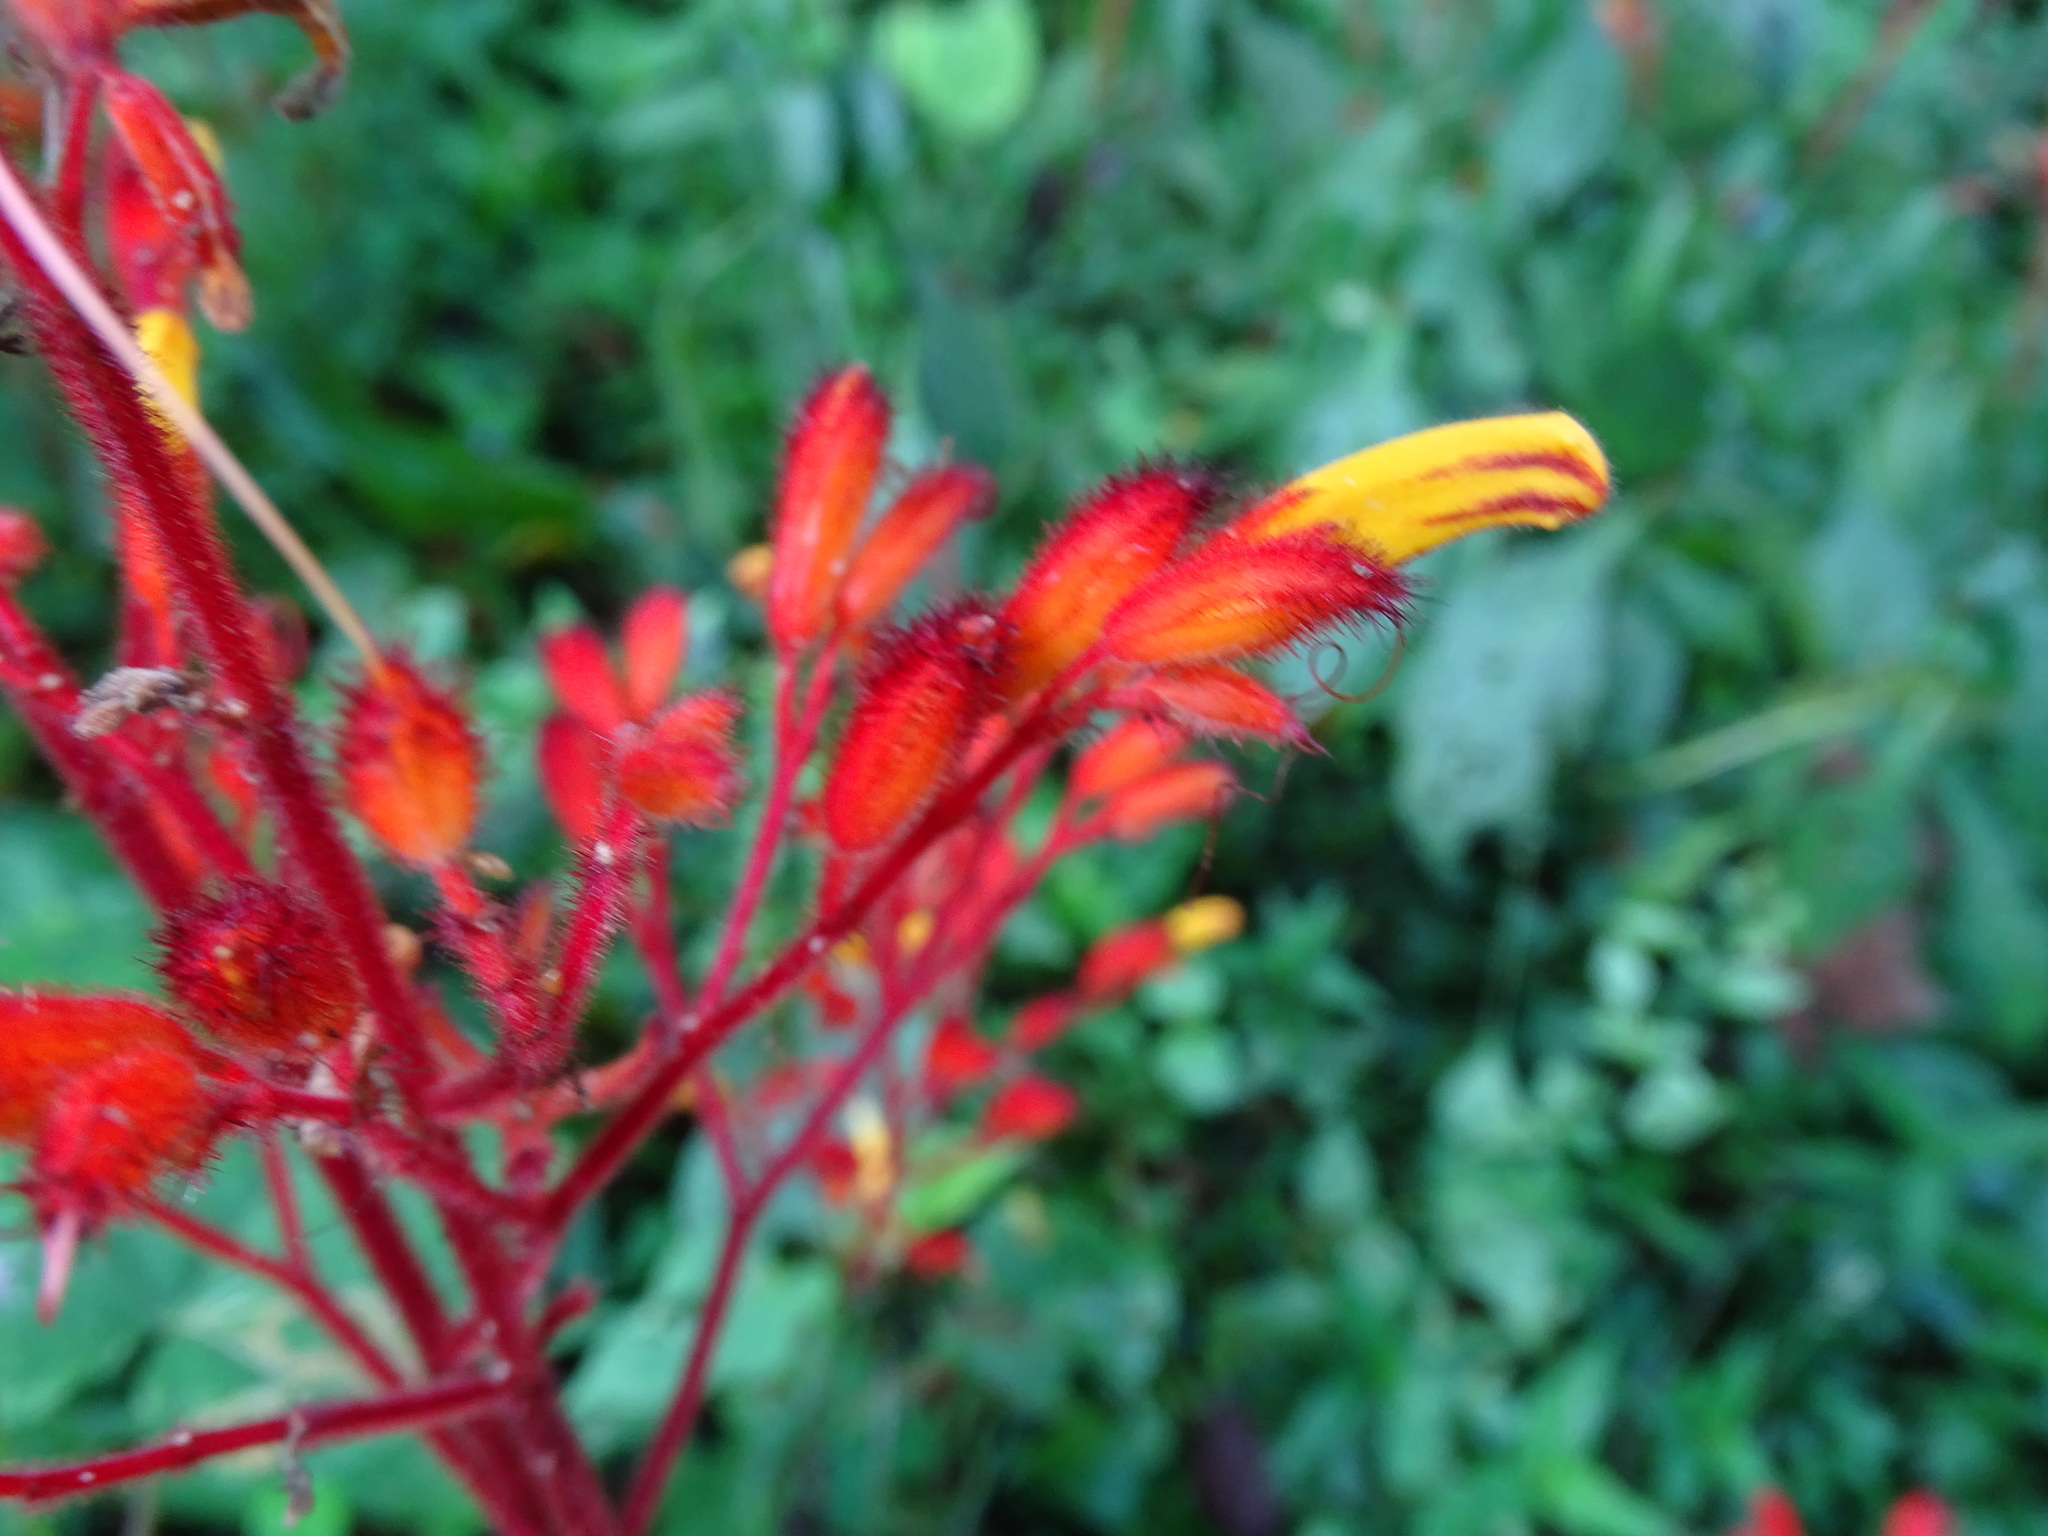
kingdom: Plantae
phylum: Tracheophyta
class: Magnoliopsida
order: Lamiales
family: Acanthaceae
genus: Stenostephanus
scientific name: Stenostephanus monolophus
